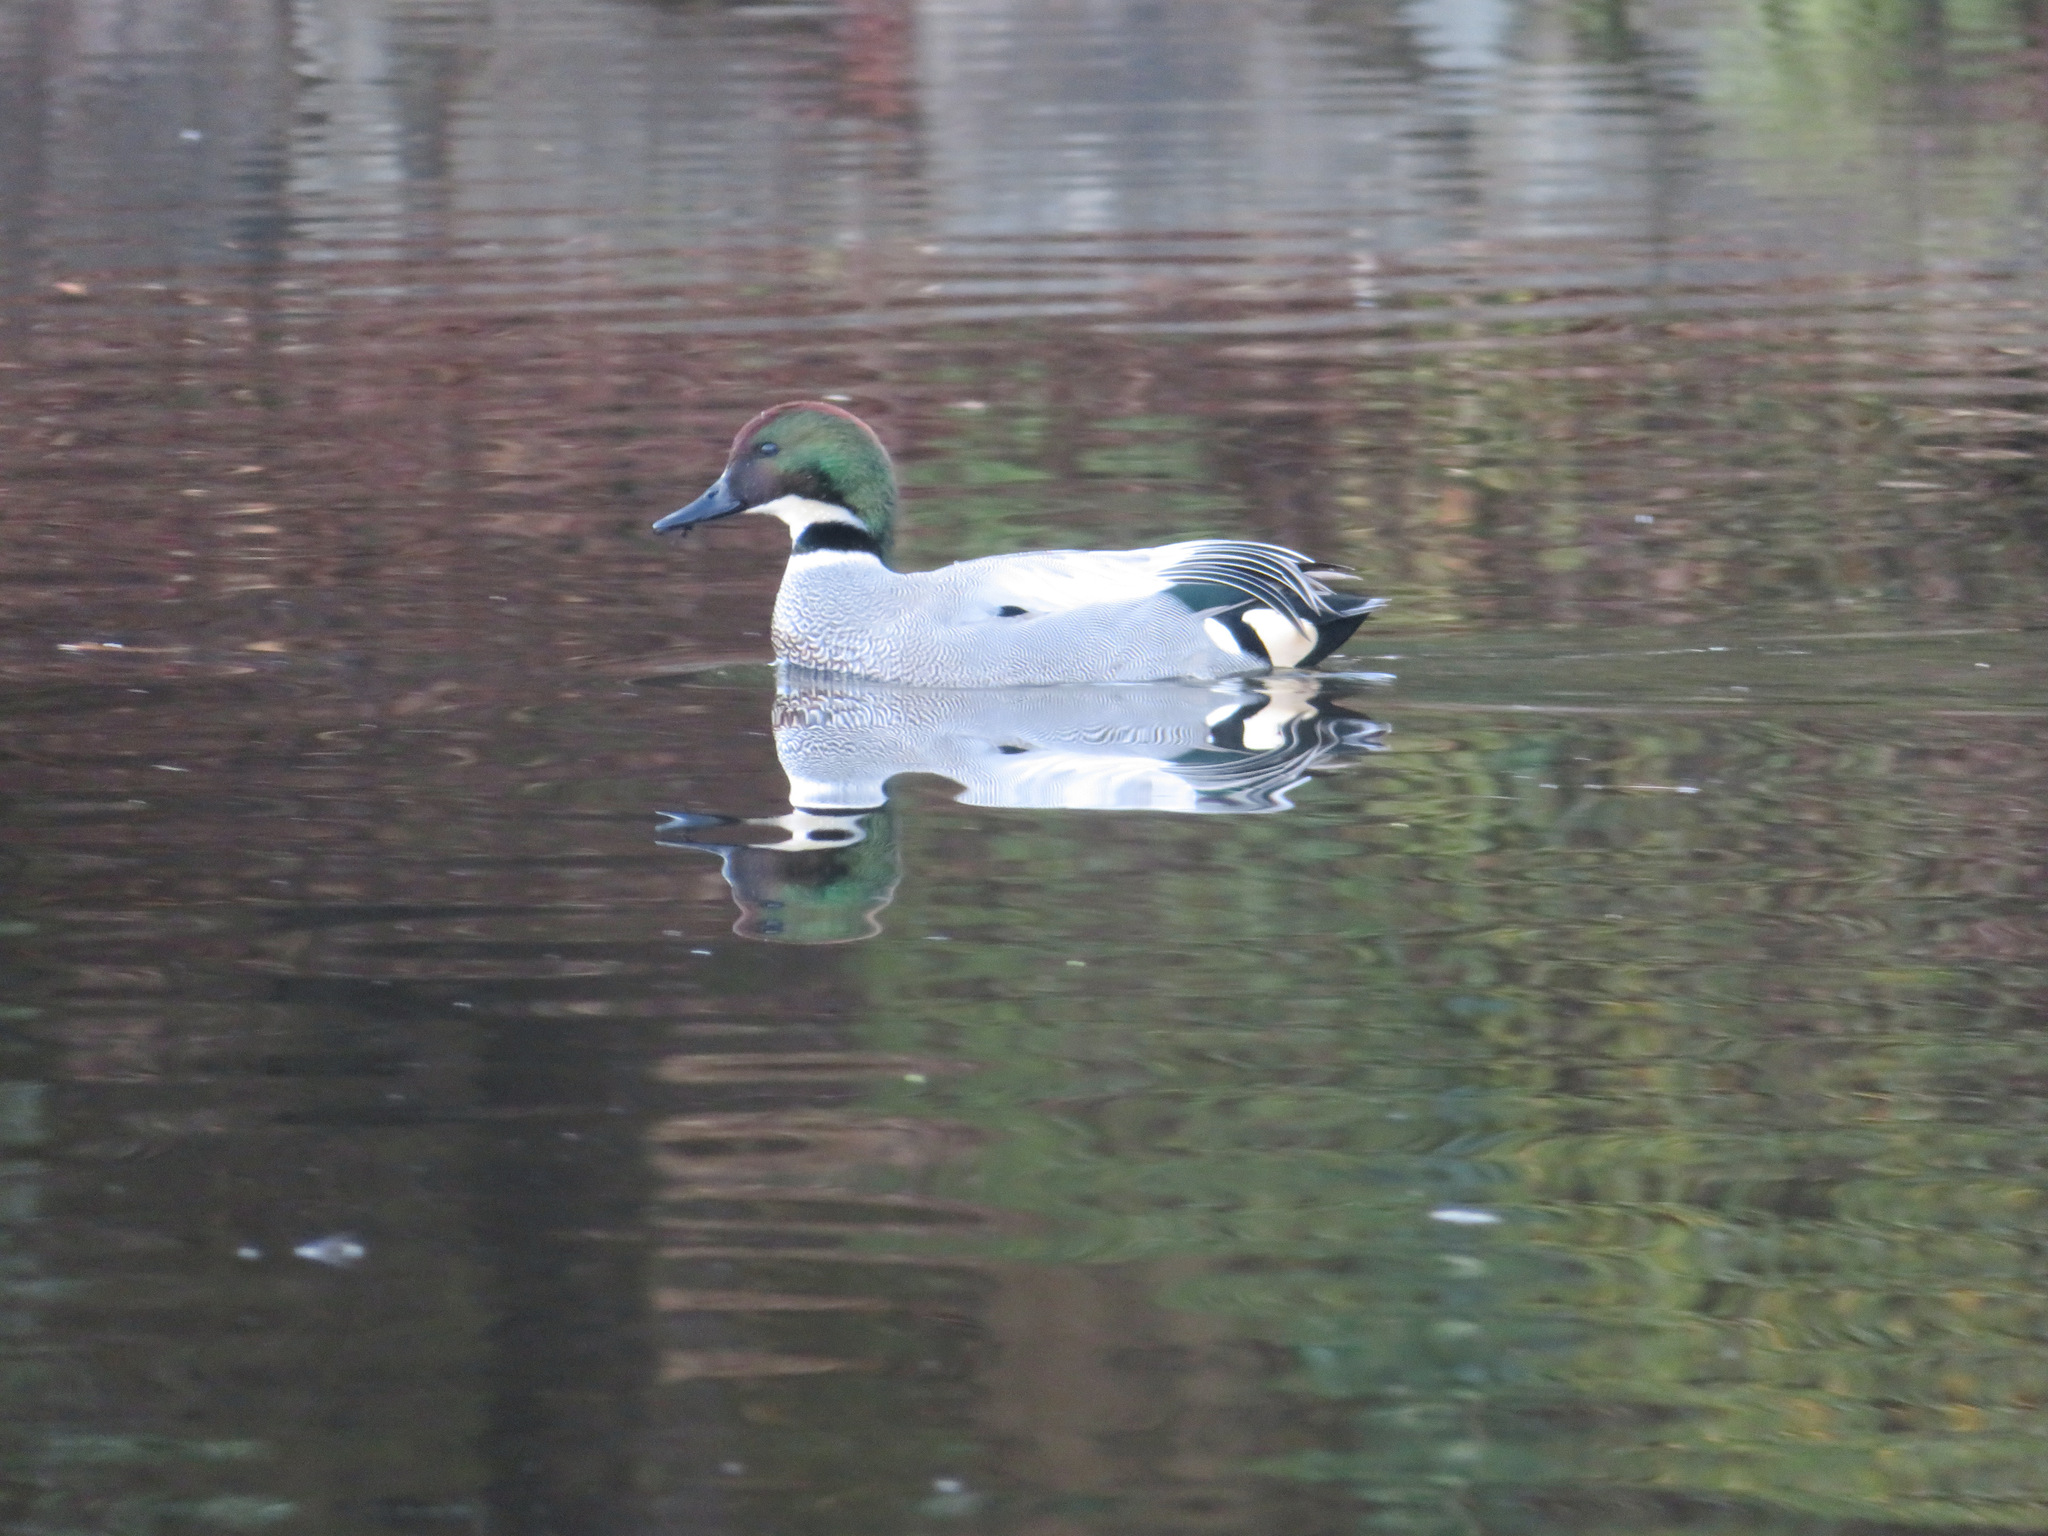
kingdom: Animalia
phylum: Chordata
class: Aves
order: Anseriformes
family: Anatidae
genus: Mareca
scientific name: Mareca falcata
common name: Falcated duck
